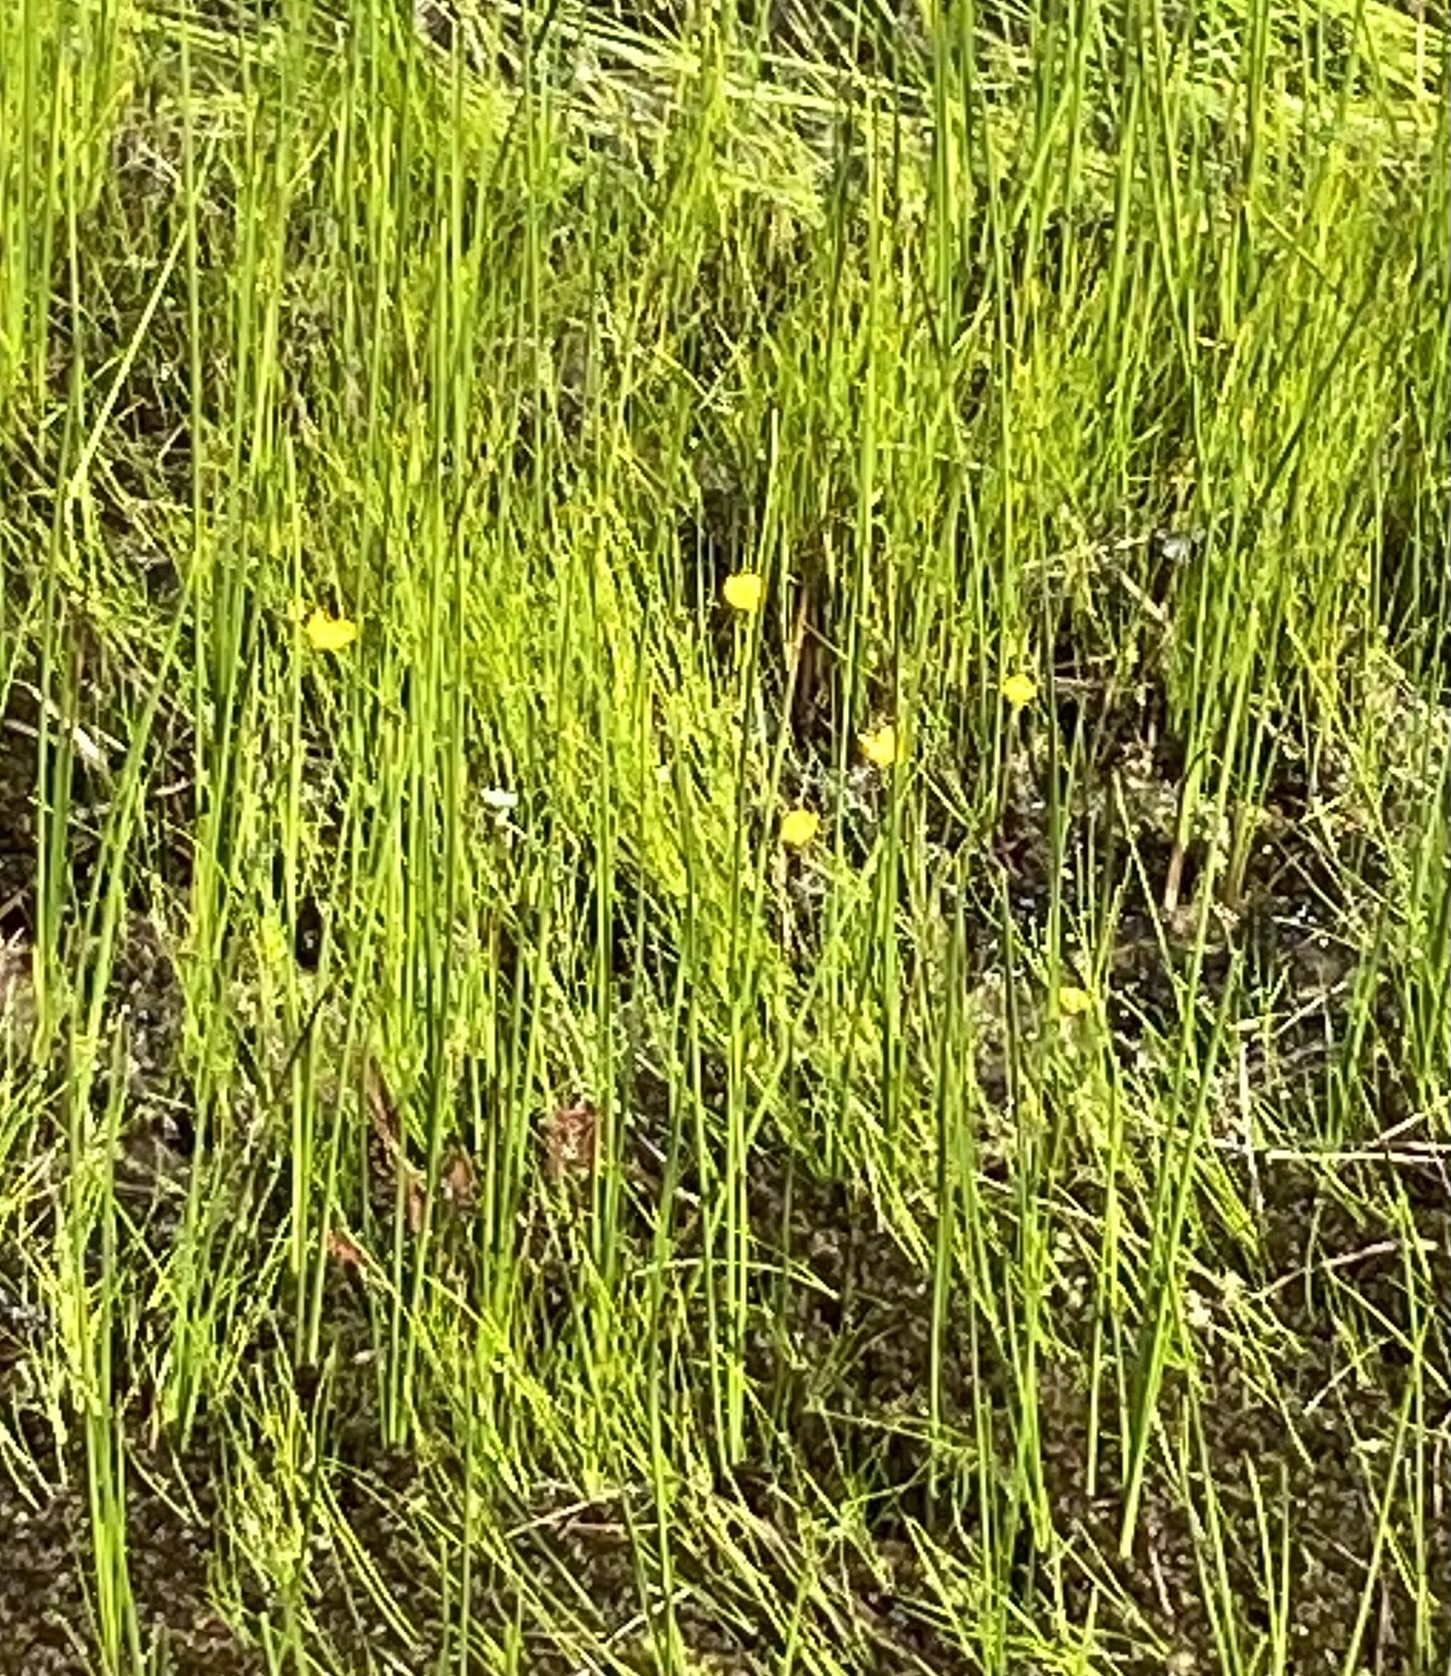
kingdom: Plantae
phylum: Tracheophyta
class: Magnoliopsida
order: Lamiales
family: Lentibulariaceae
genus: Utricularia
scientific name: Utricularia intermedia
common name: Intermediate bladderwort
